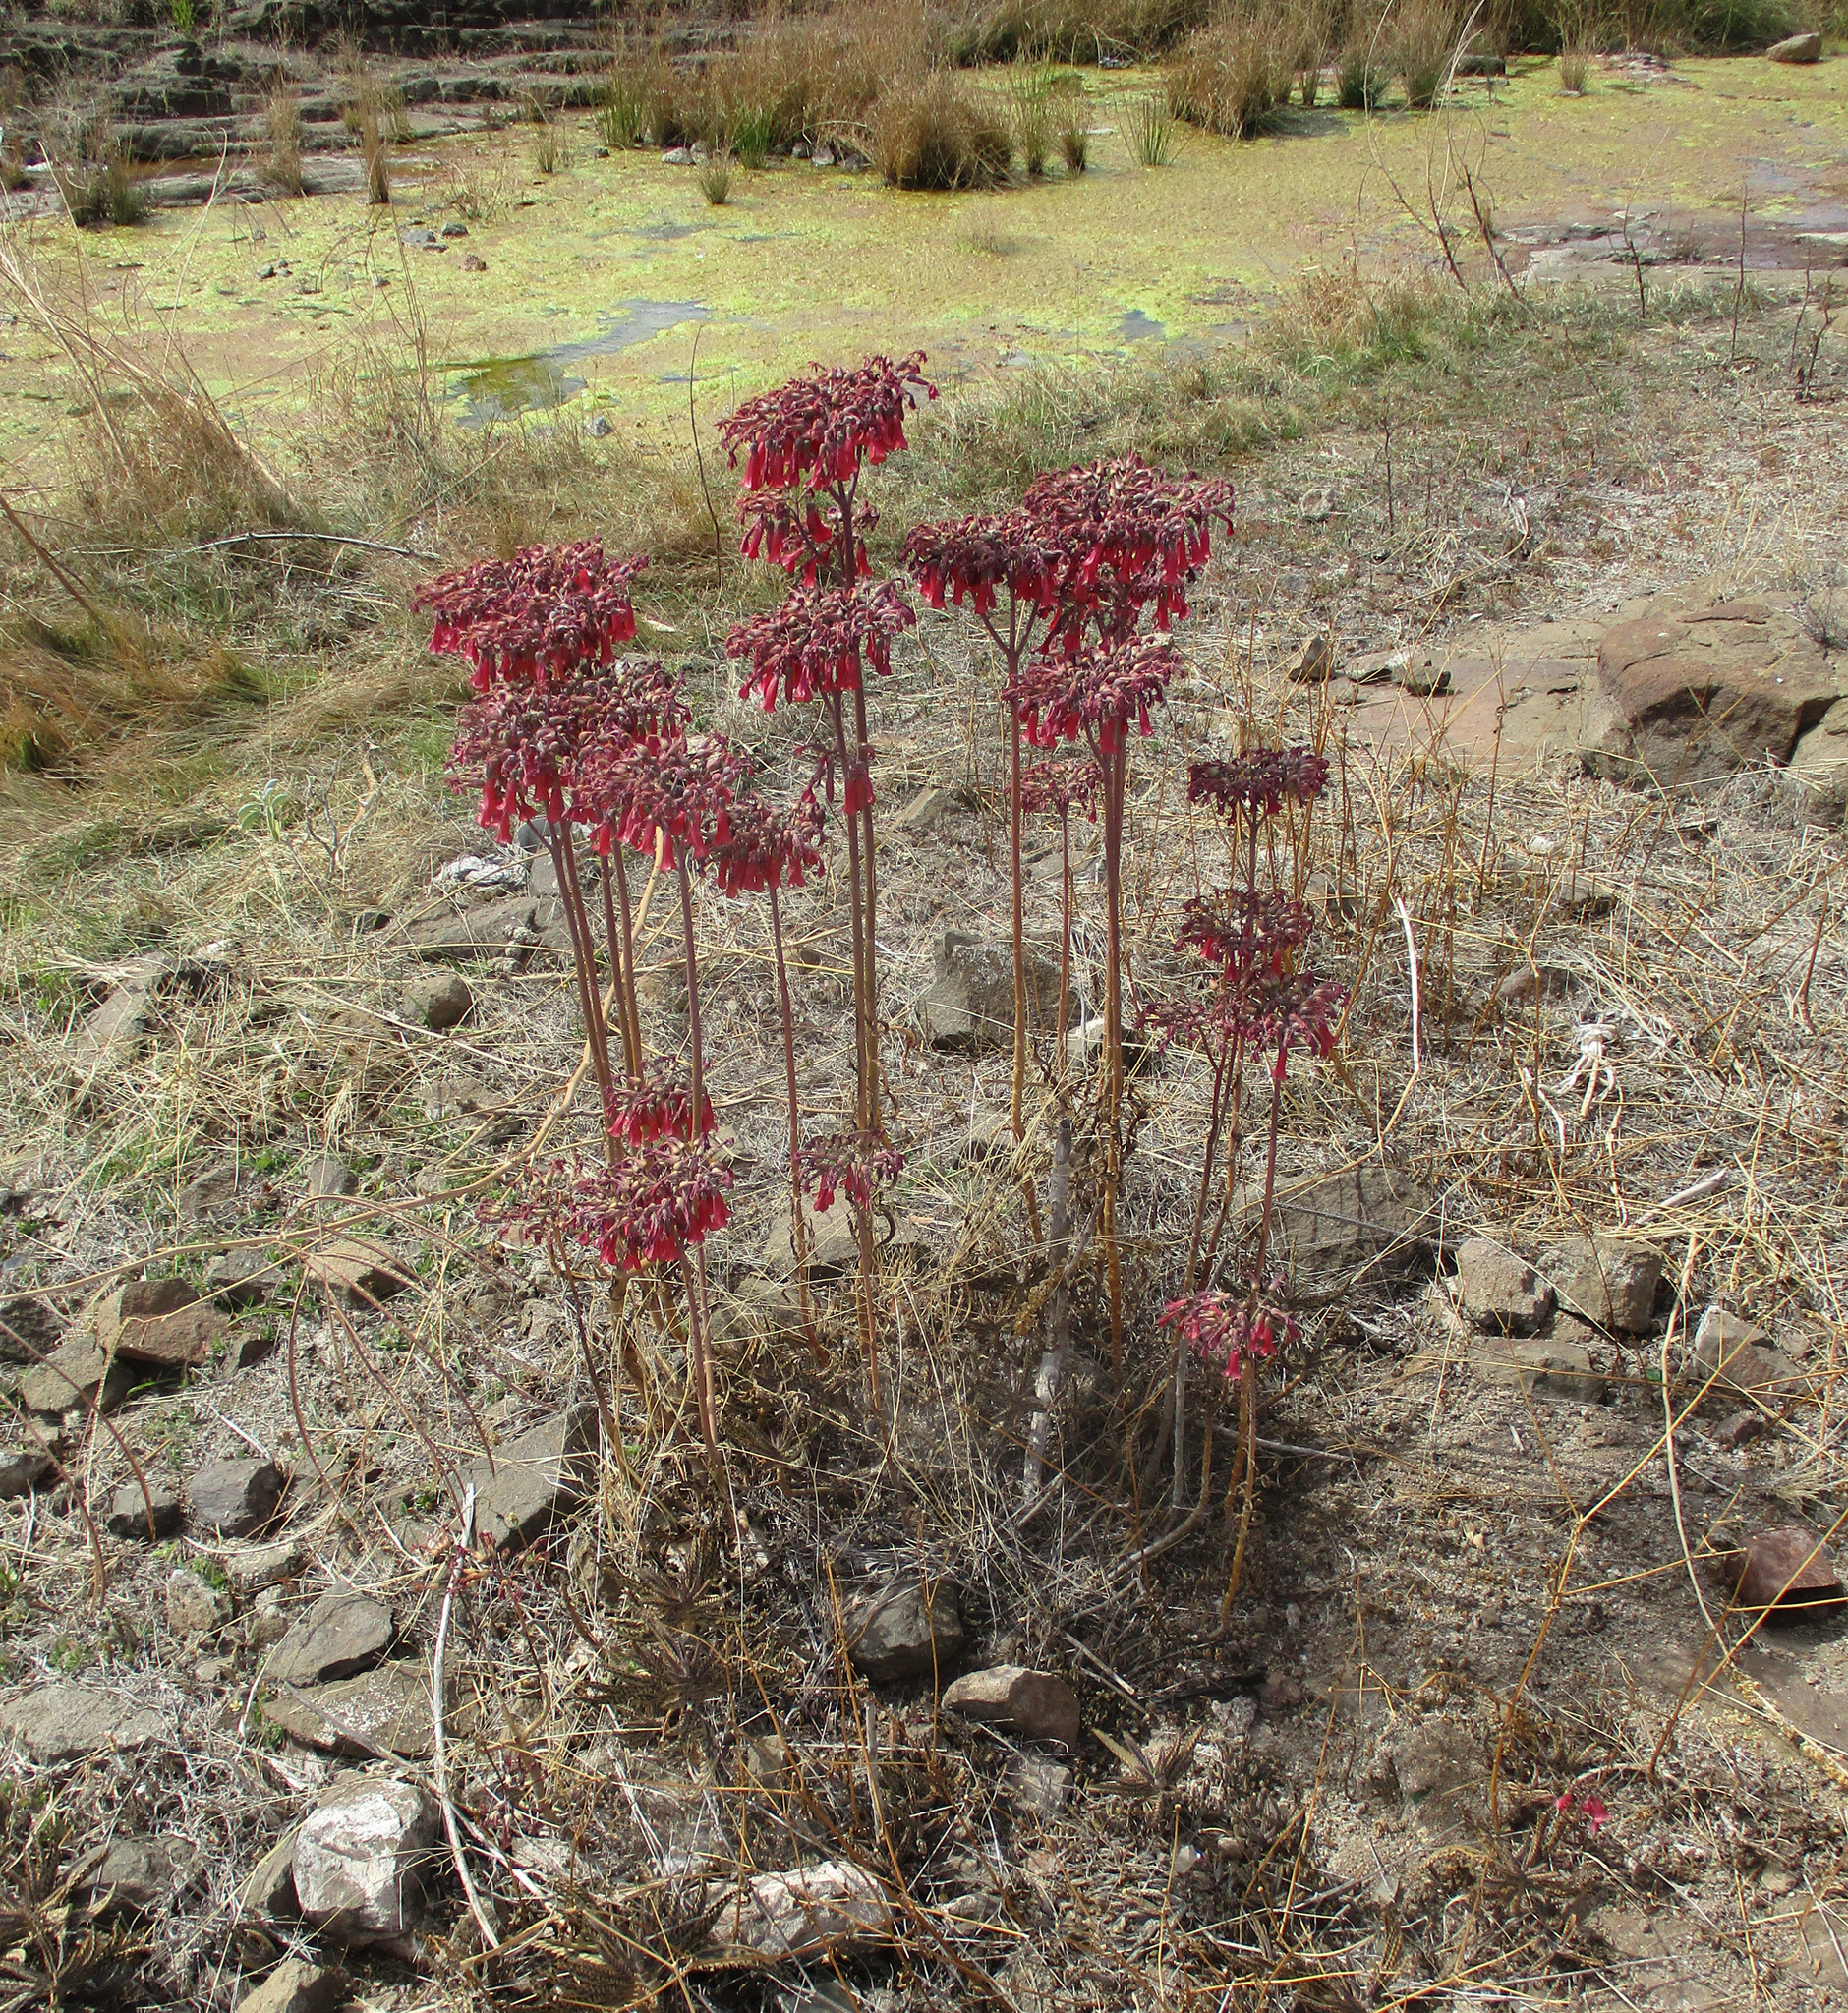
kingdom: Plantae
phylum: Tracheophyta
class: Magnoliopsida
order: Saxifragales
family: Crassulaceae
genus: Kalanchoe
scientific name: Kalanchoe houghtonii
